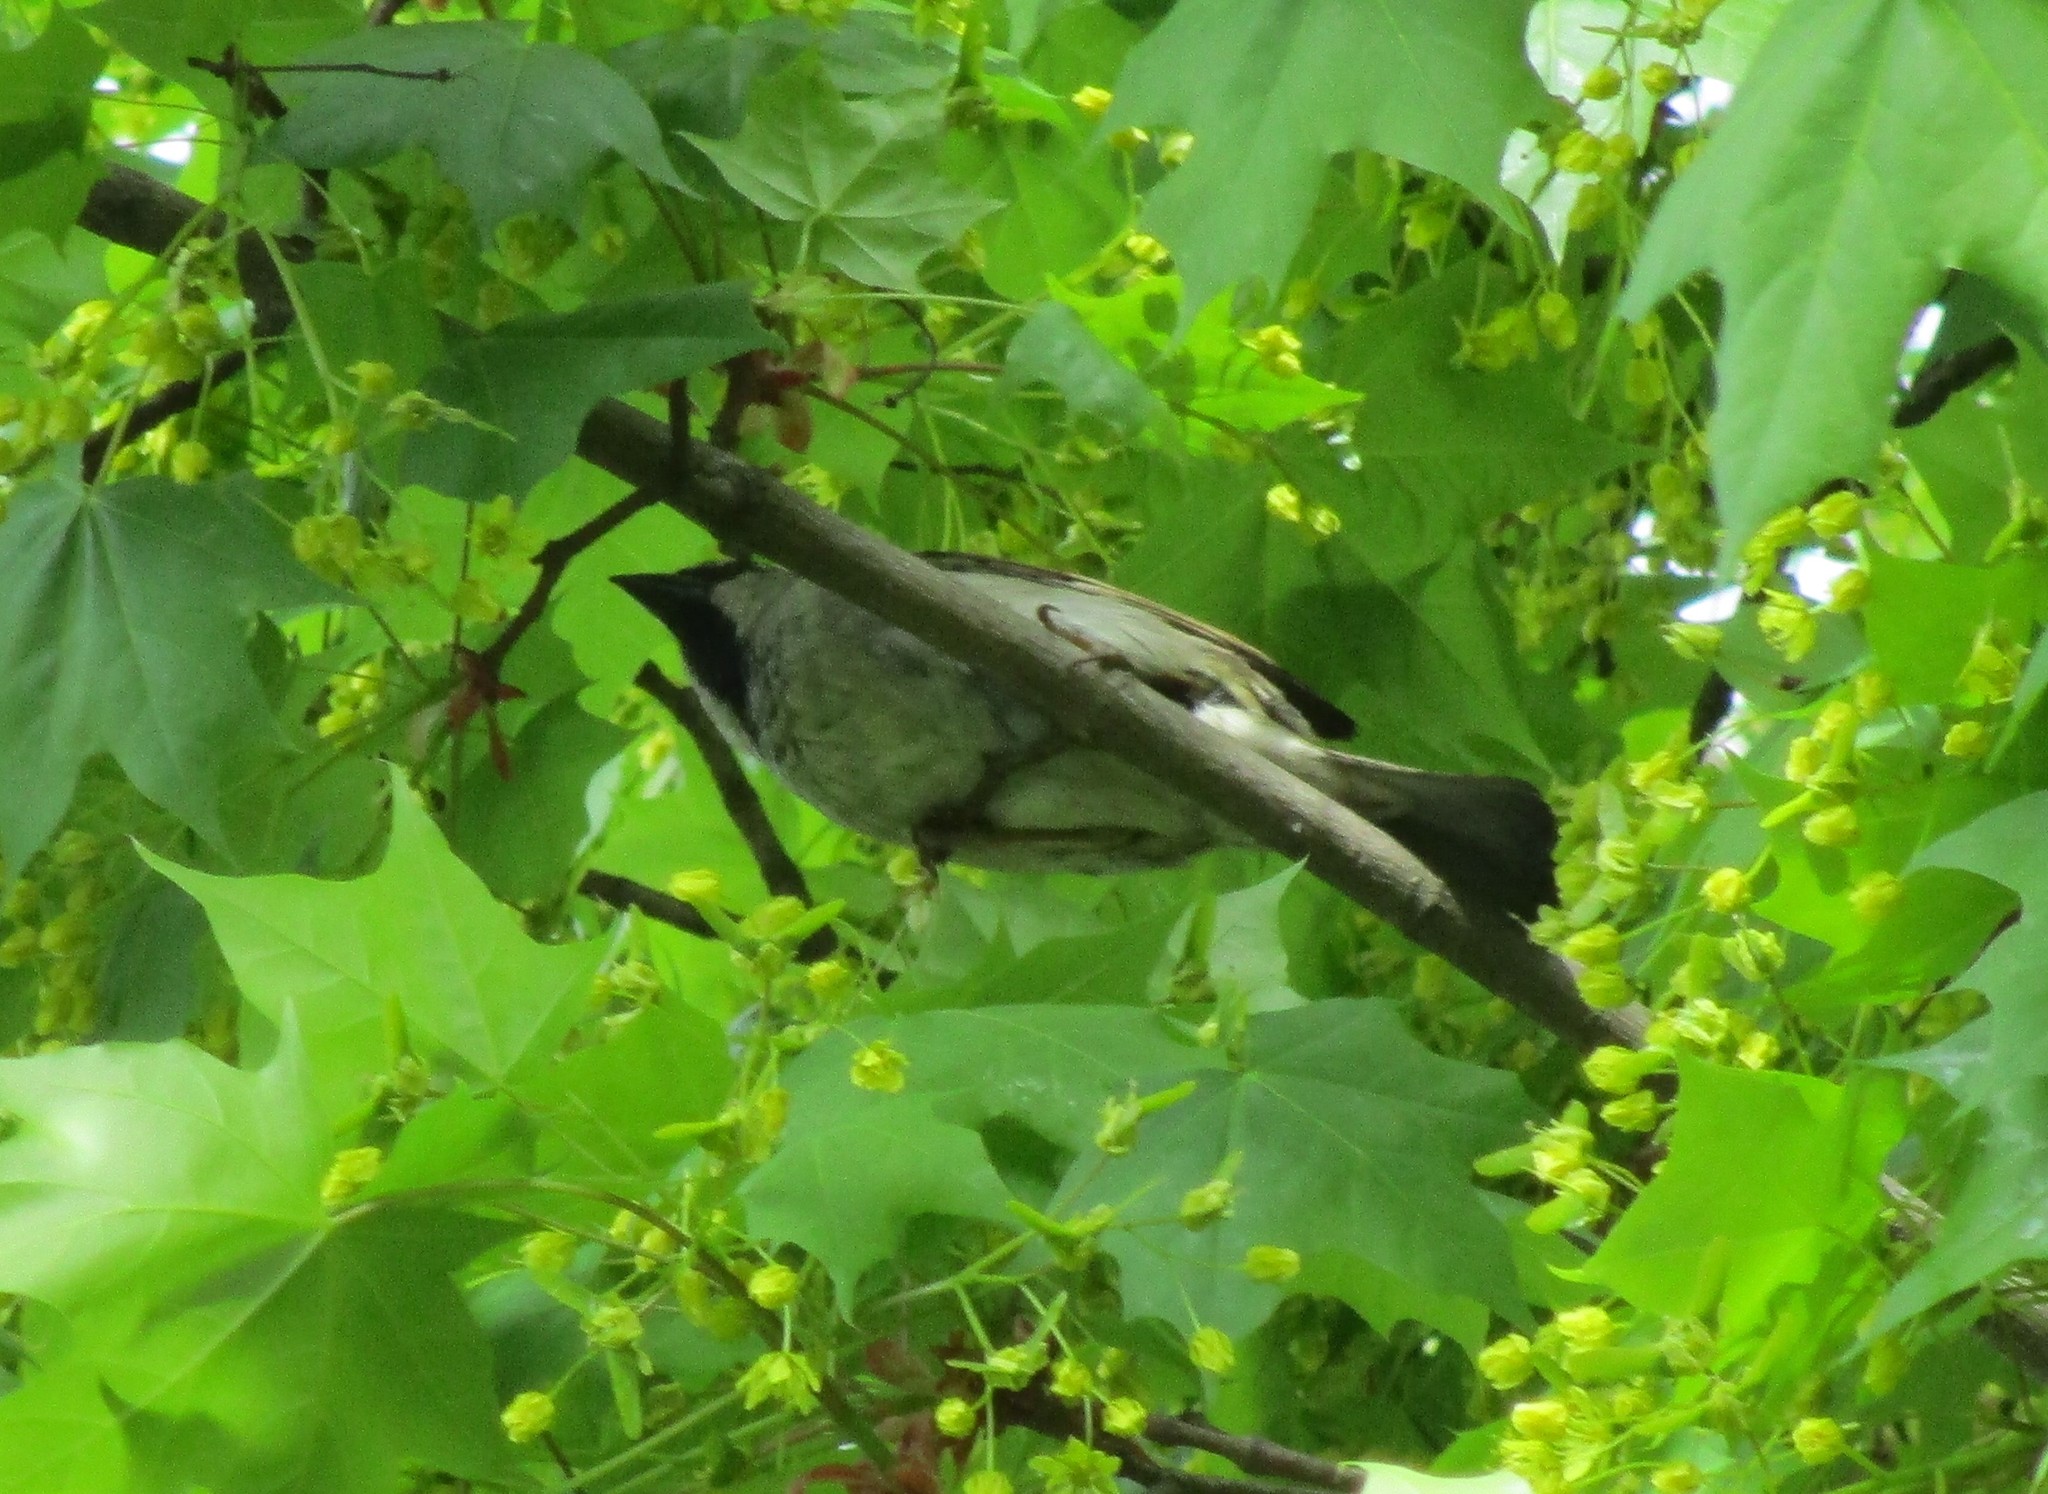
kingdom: Animalia
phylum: Chordata
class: Aves
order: Passeriformes
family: Passeridae
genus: Passer
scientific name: Passer domesticus
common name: House sparrow
